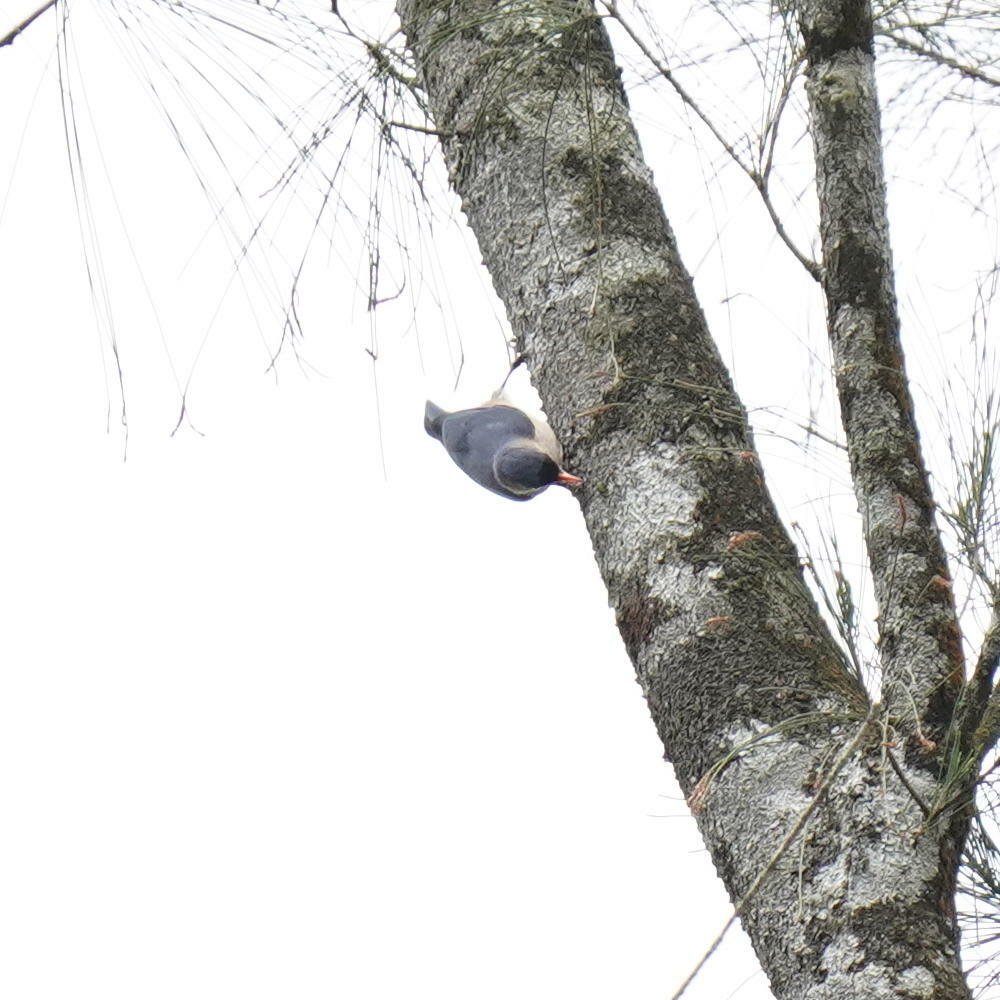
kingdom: Animalia
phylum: Chordata
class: Aves
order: Passeriformes
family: Sittidae
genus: Sitta
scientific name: Sitta frontalis
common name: Velvet-fronted nuthatch
